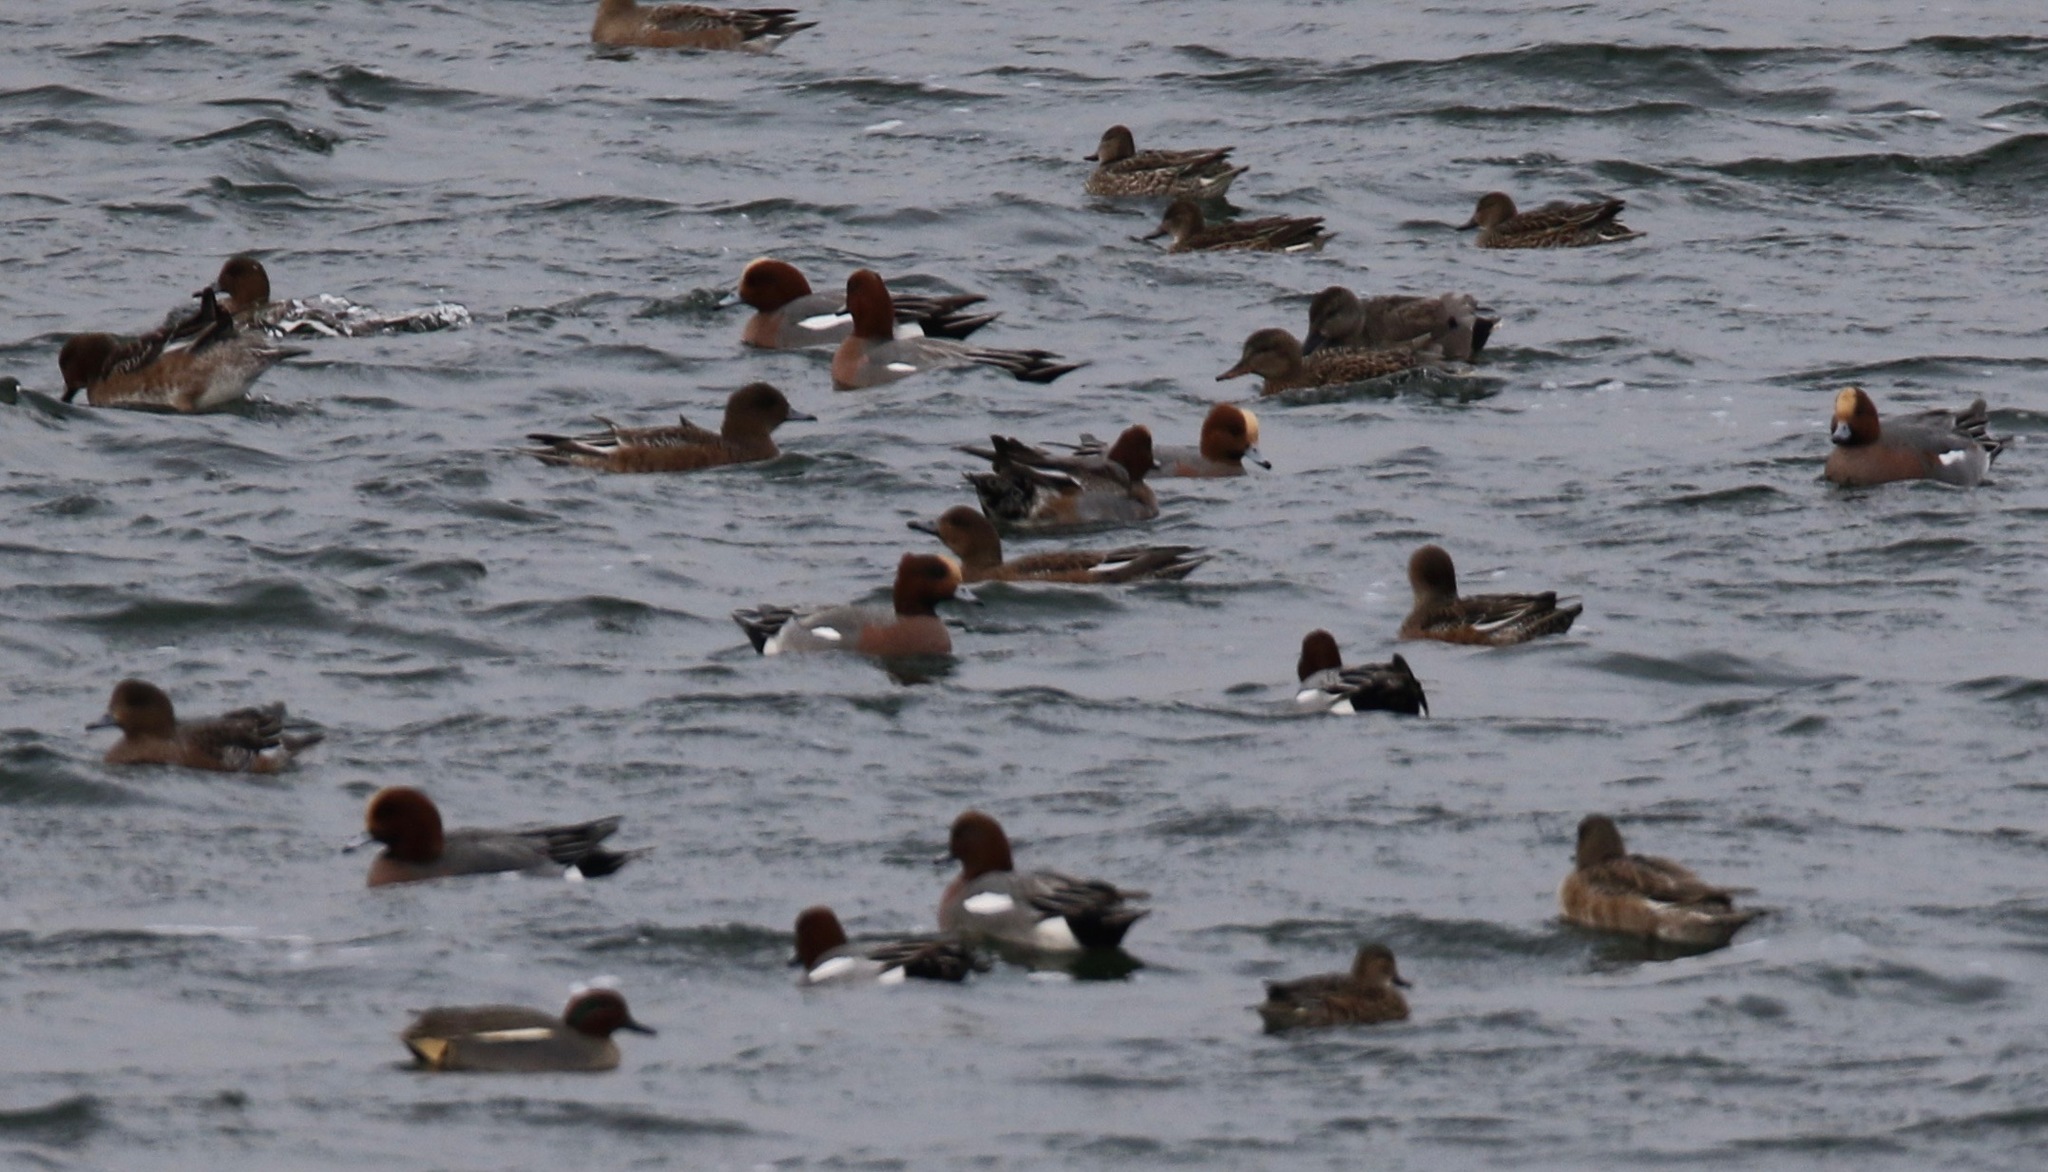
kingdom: Animalia
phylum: Chordata
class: Aves
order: Anseriformes
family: Anatidae
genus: Mareca
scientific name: Mareca penelope
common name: Eurasian wigeon
